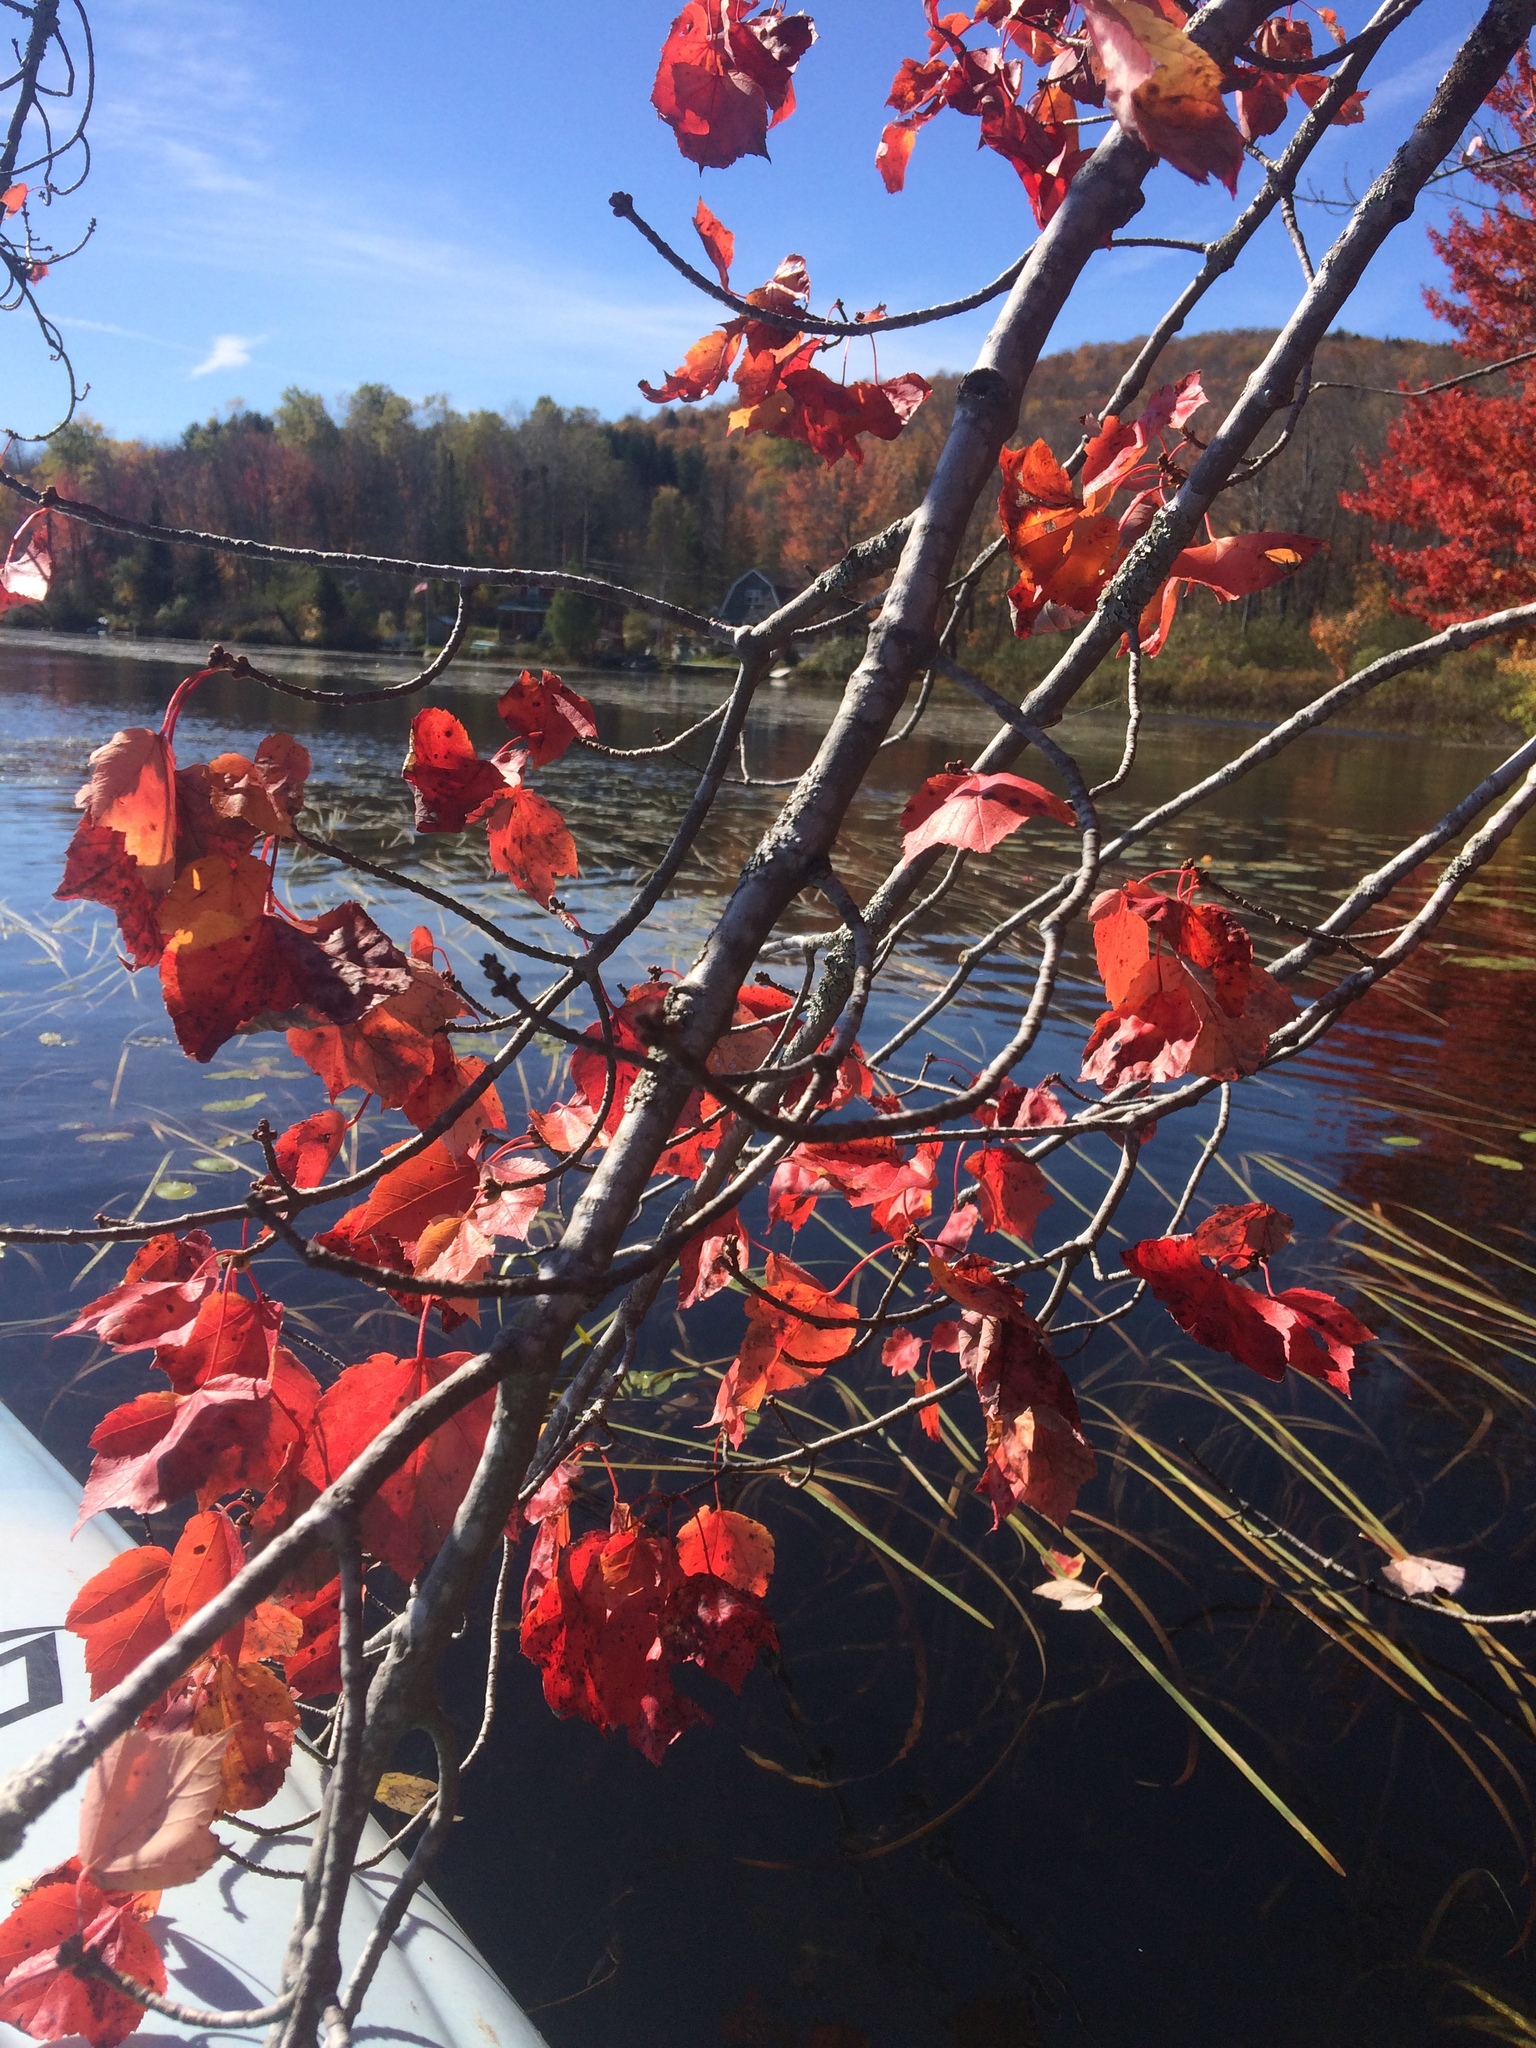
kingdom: Plantae
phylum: Tracheophyta
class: Magnoliopsida
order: Sapindales
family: Sapindaceae
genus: Acer
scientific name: Acer rubrum
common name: Red maple
